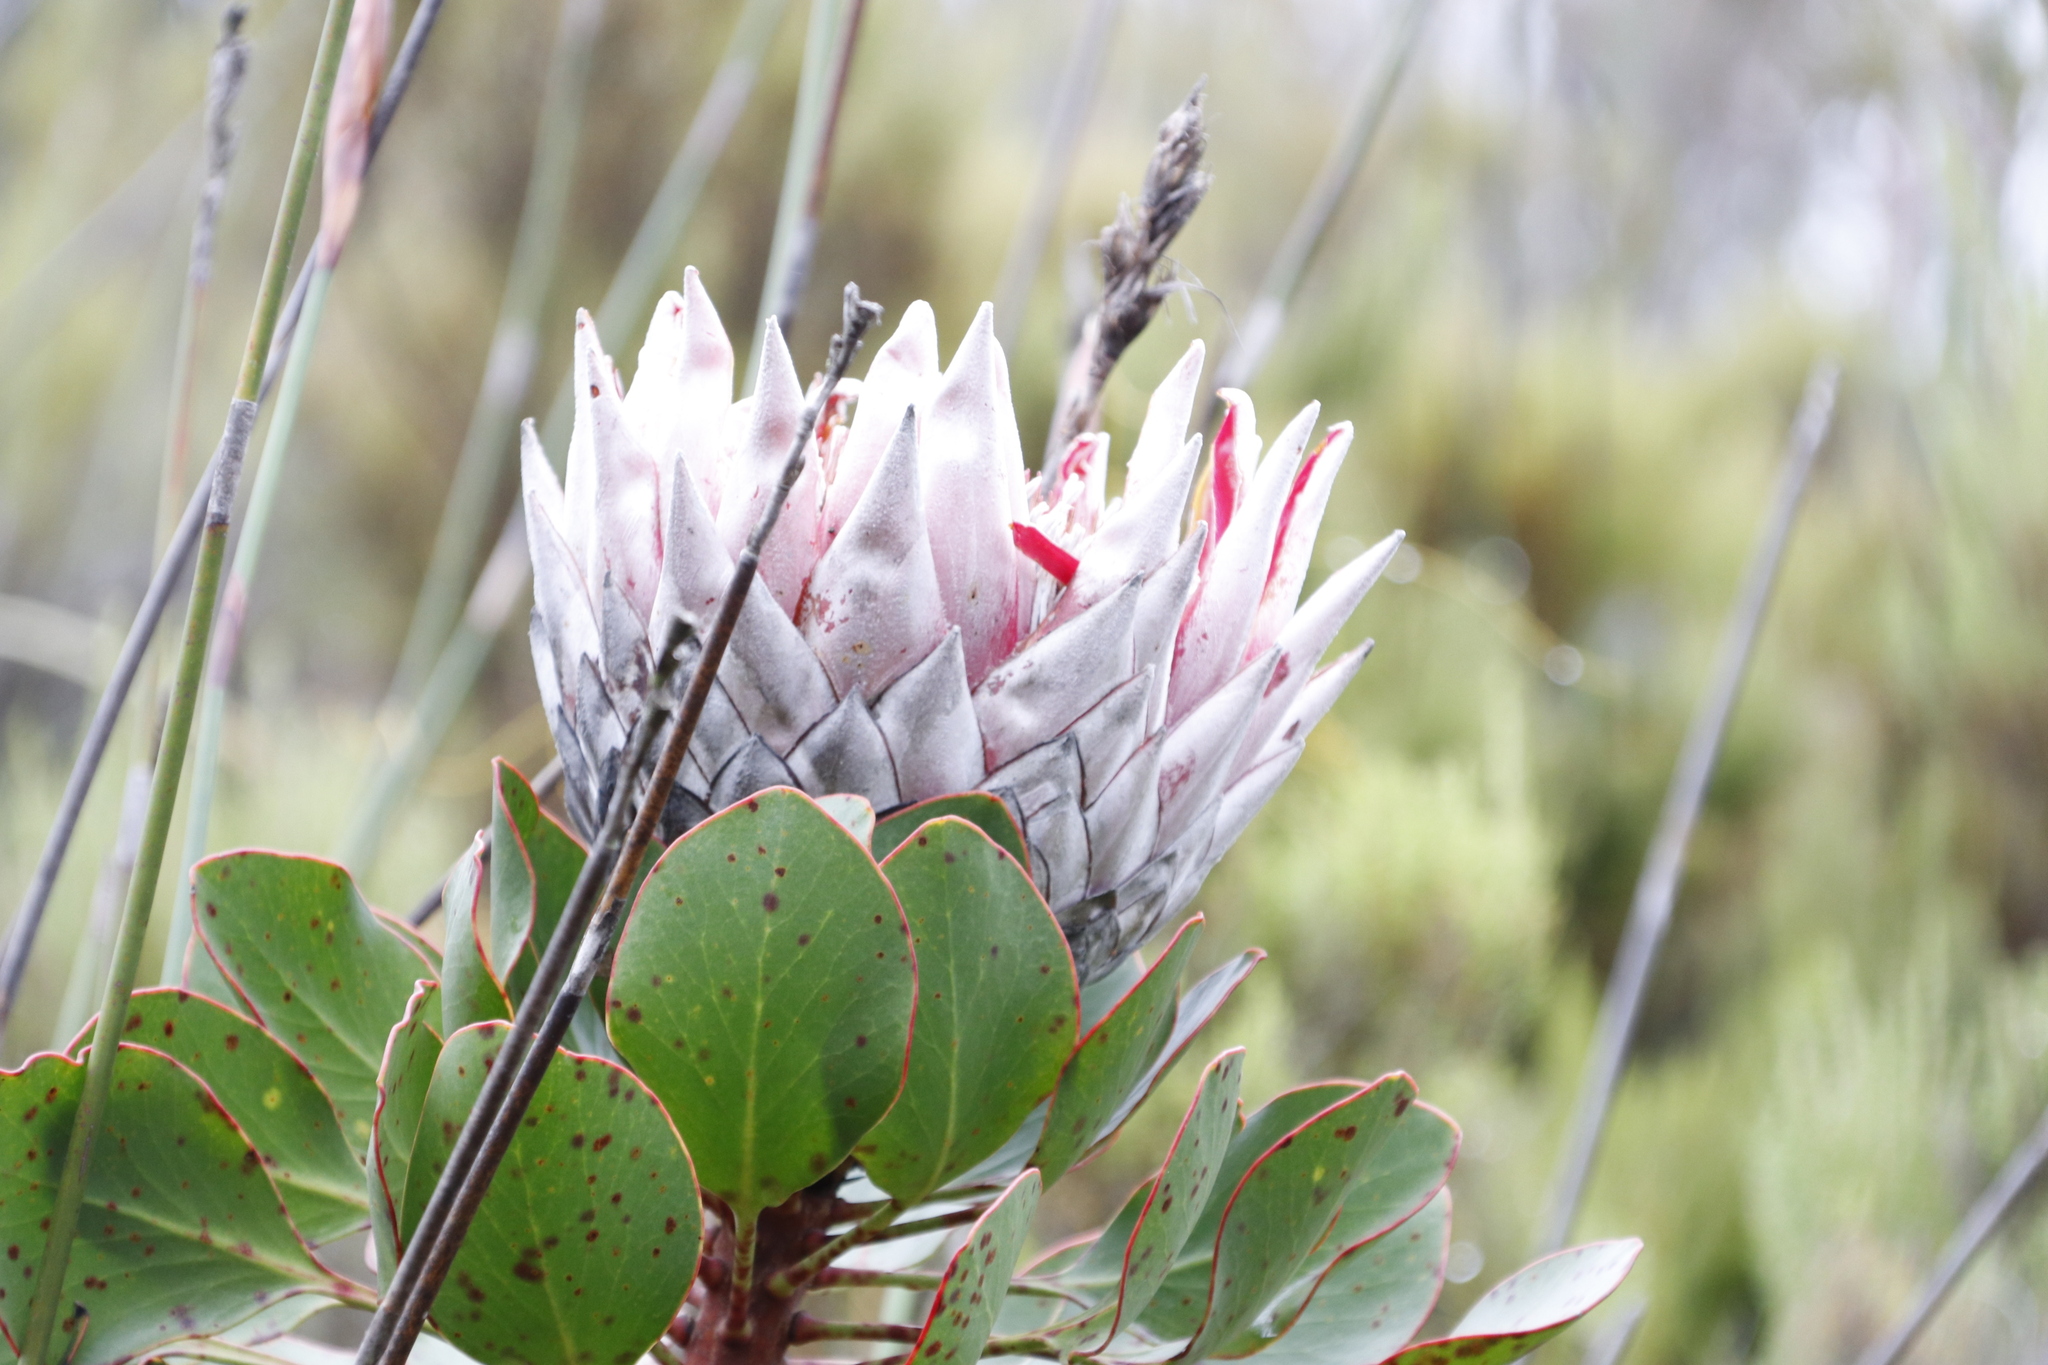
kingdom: Plantae
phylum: Tracheophyta
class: Magnoliopsida
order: Proteales
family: Proteaceae
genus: Protea
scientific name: Protea cynaroides
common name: King protea
